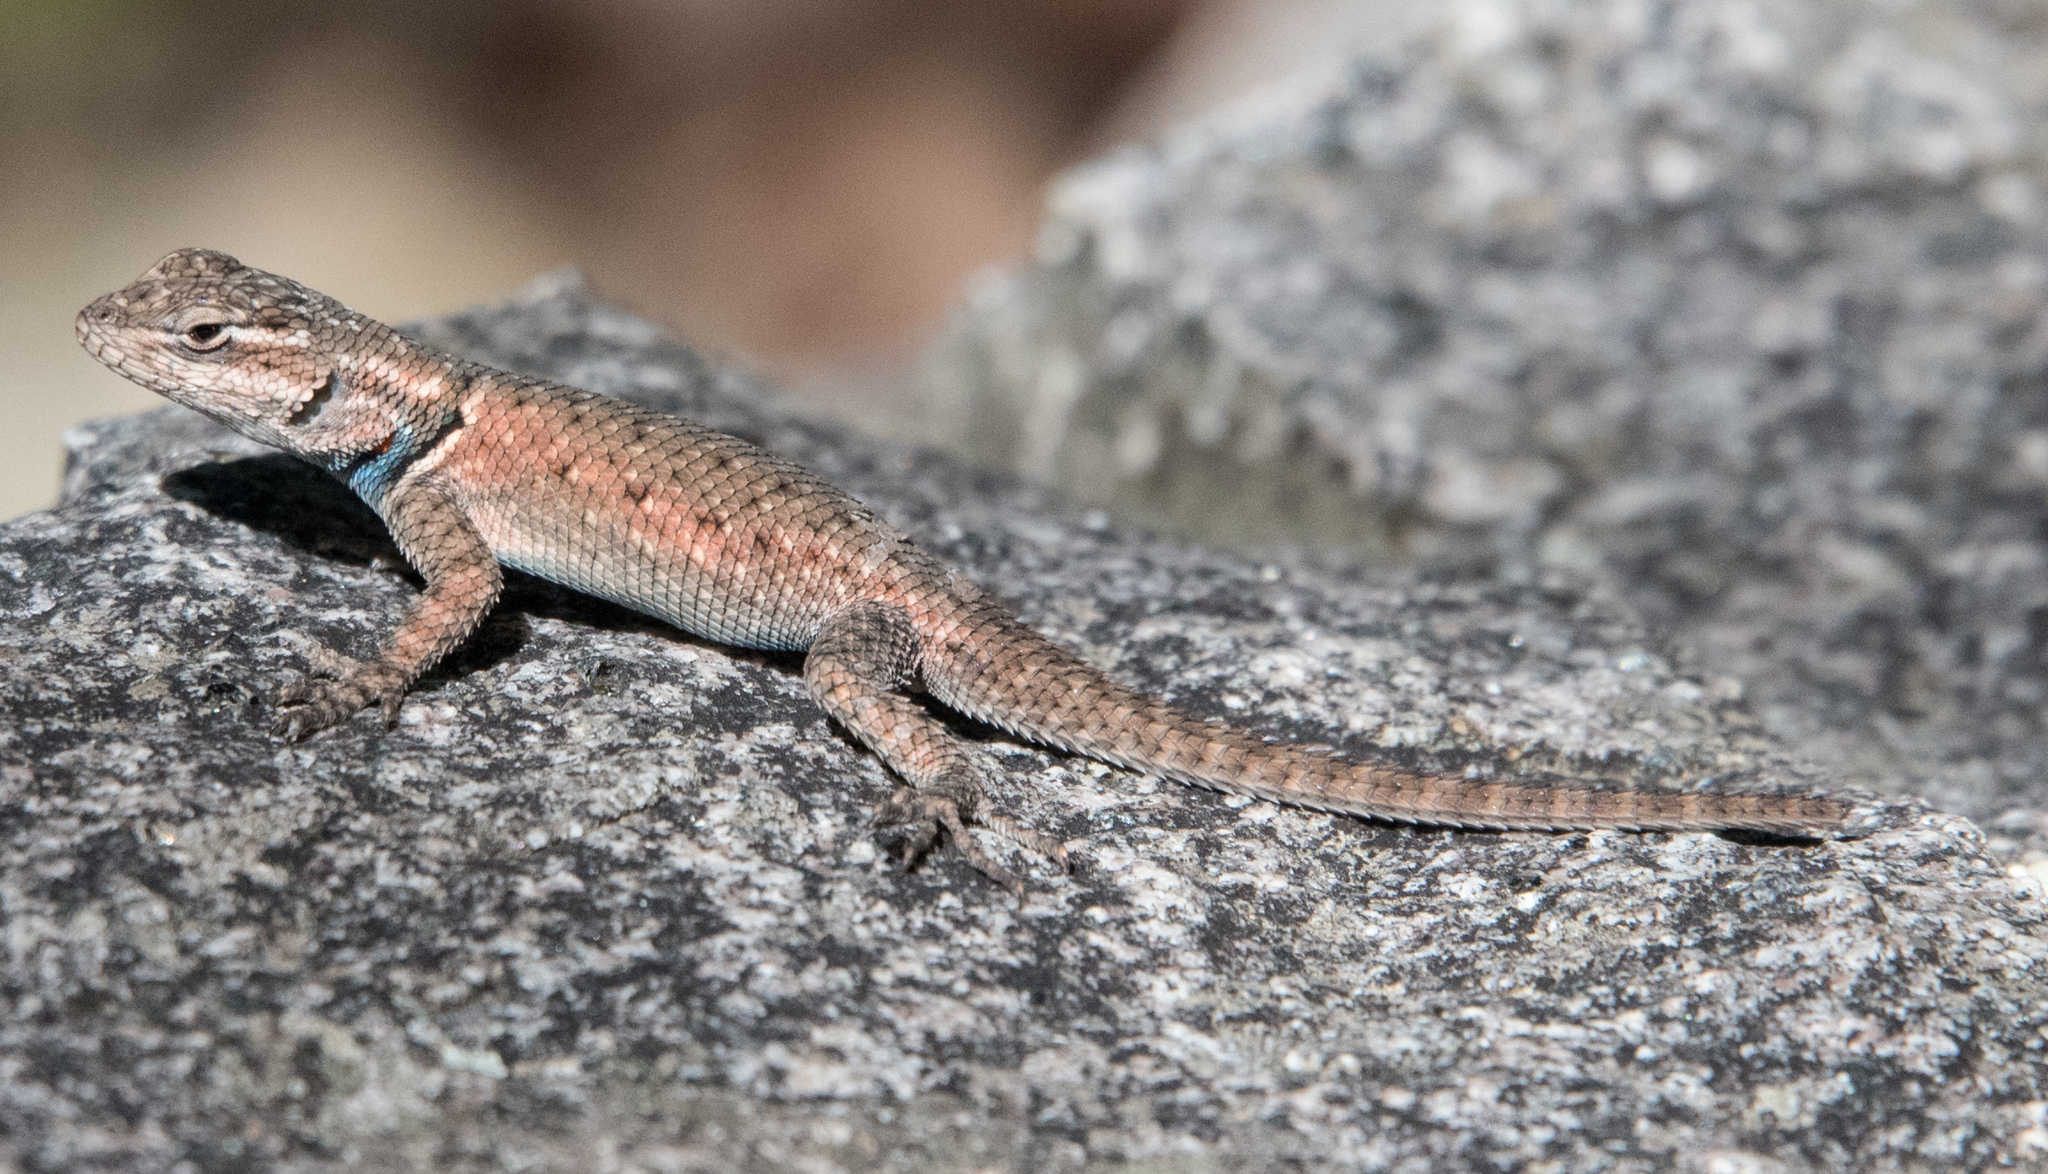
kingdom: Animalia
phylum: Chordata
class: Squamata
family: Phrynosomatidae
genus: Sceloporus
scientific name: Sceloporus magister
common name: Desert spiny lizard
